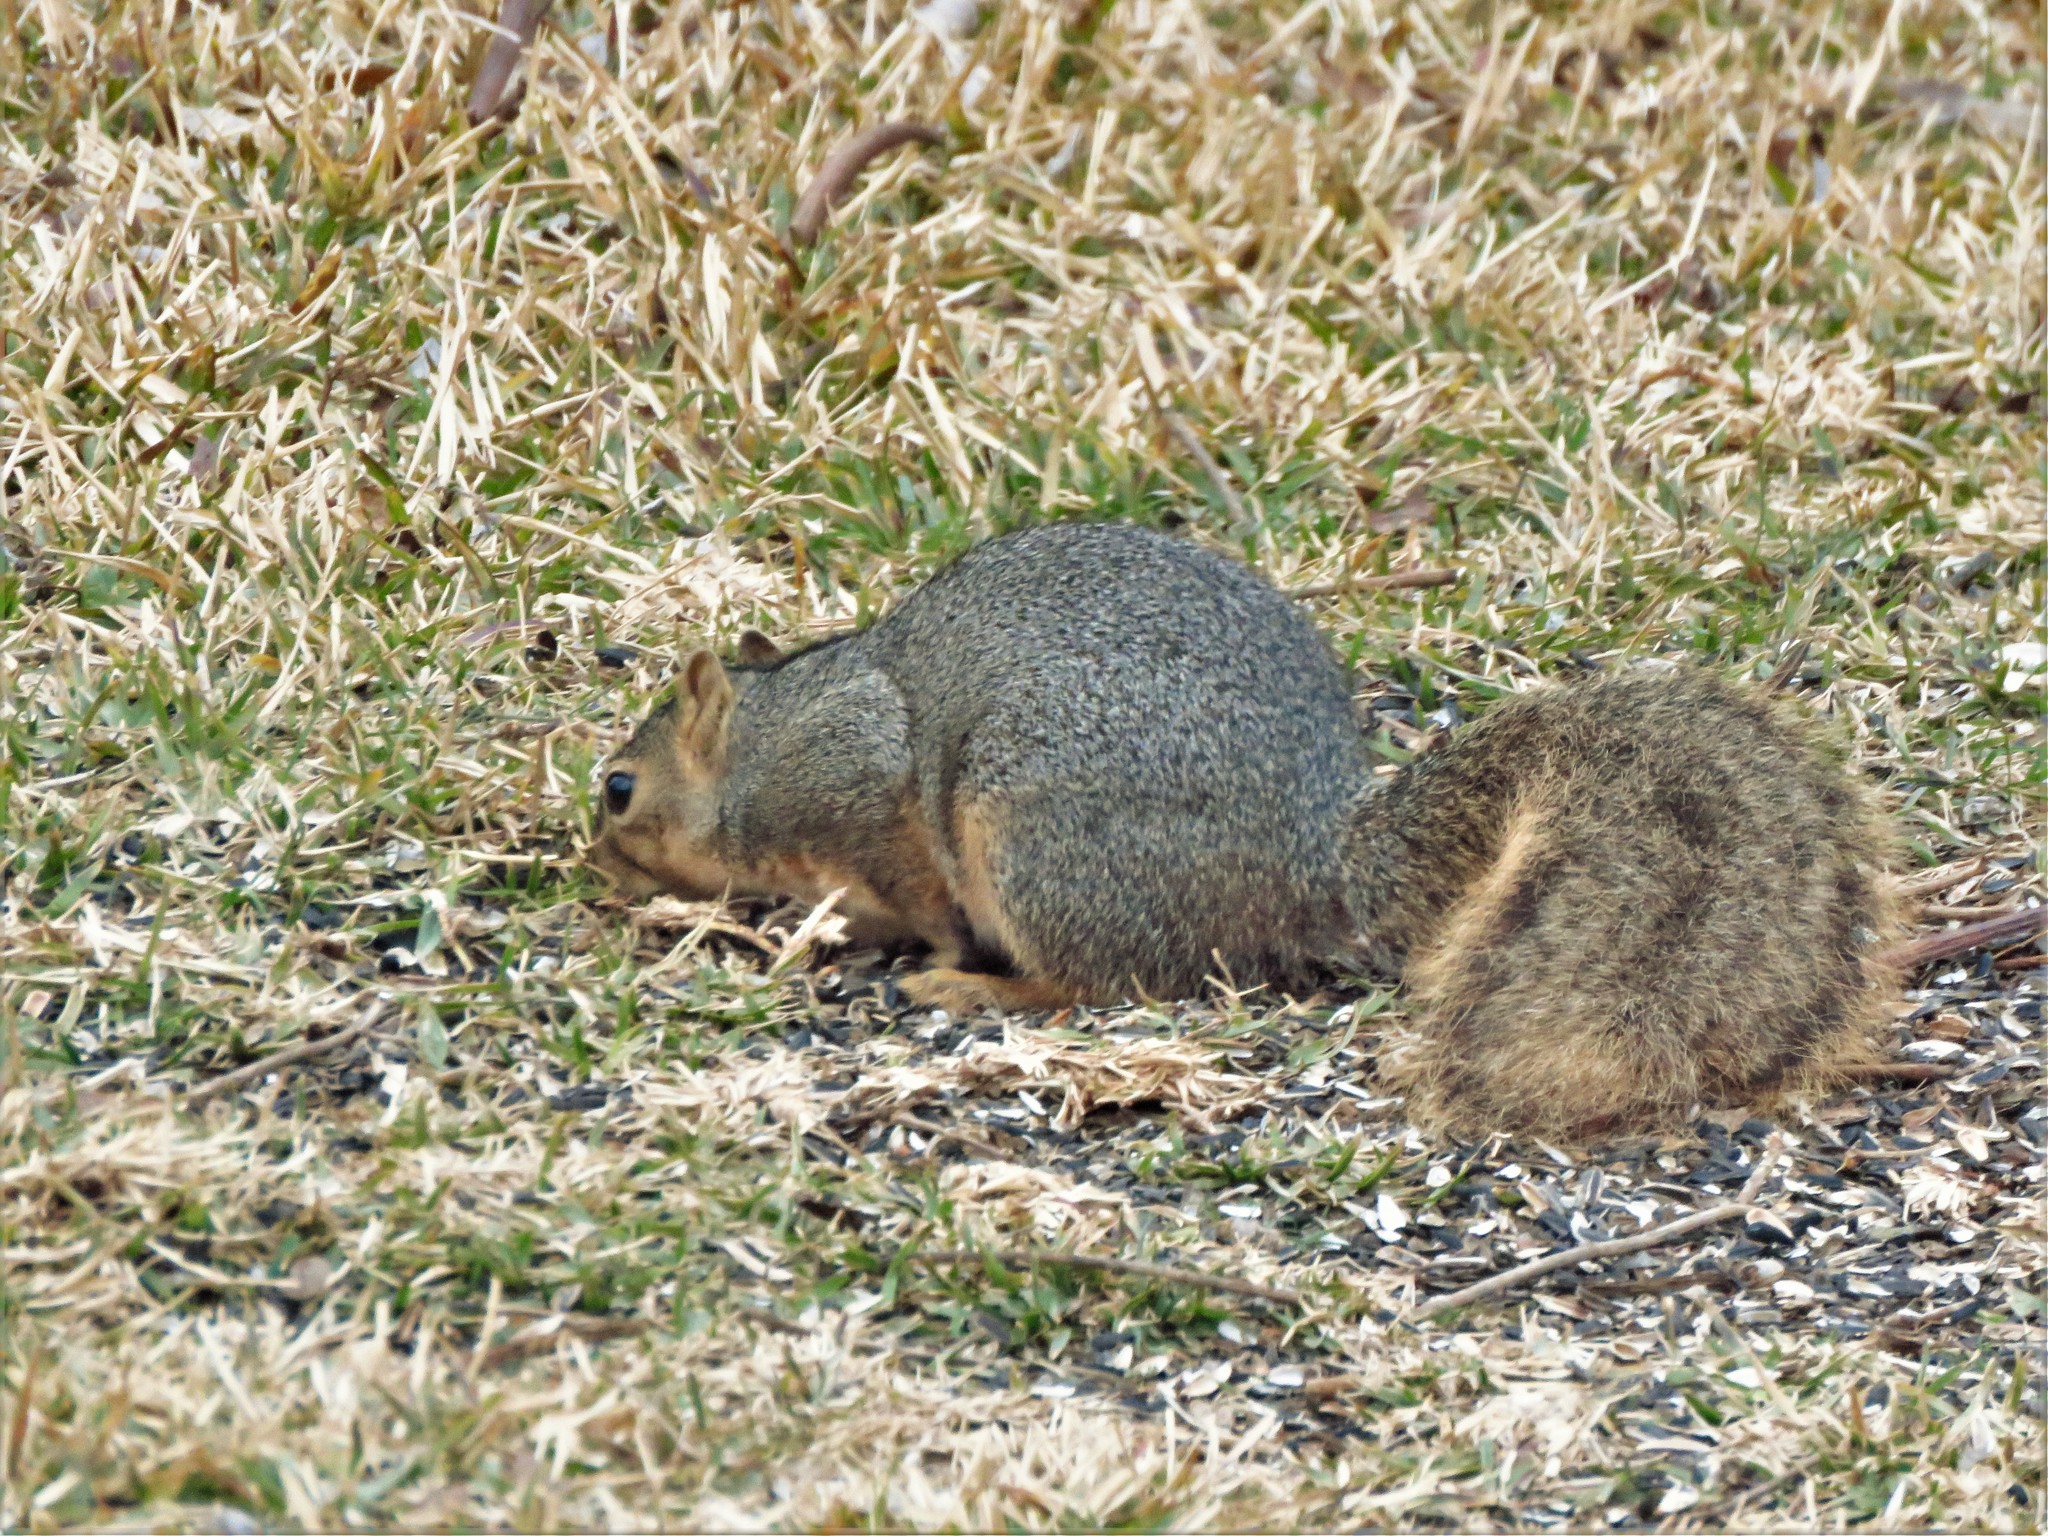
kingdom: Animalia
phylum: Chordata
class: Mammalia
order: Rodentia
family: Sciuridae
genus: Sciurus
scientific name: Sciurus niger
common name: Fox squirrel
